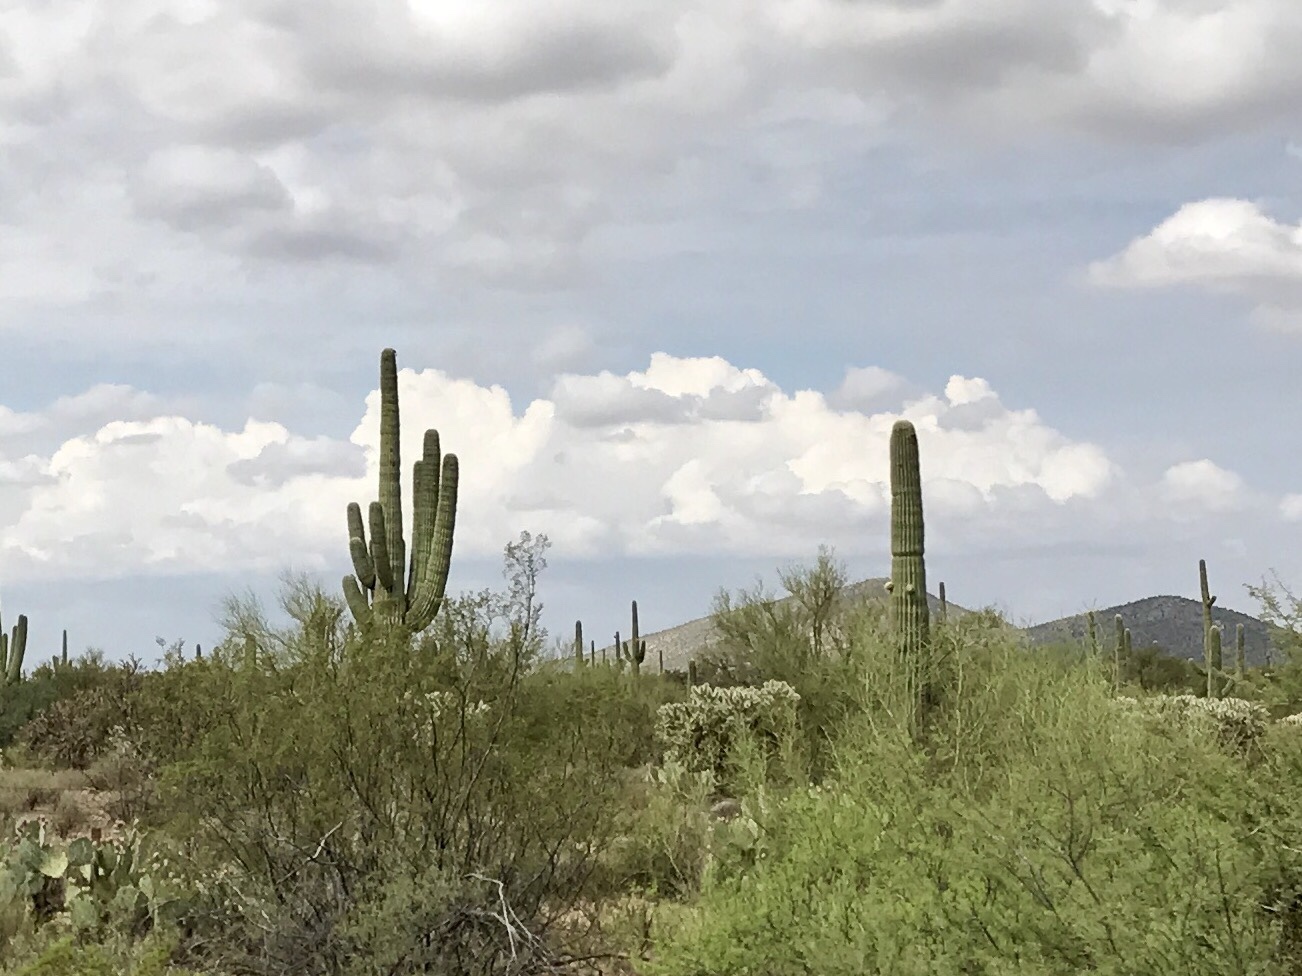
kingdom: Plantae
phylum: Tracheophyta
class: Magnoliopsida
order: Caryophyllales
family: Cactaceae
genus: Carnegiea
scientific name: Carnegiea gigantea
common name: Saguaro
